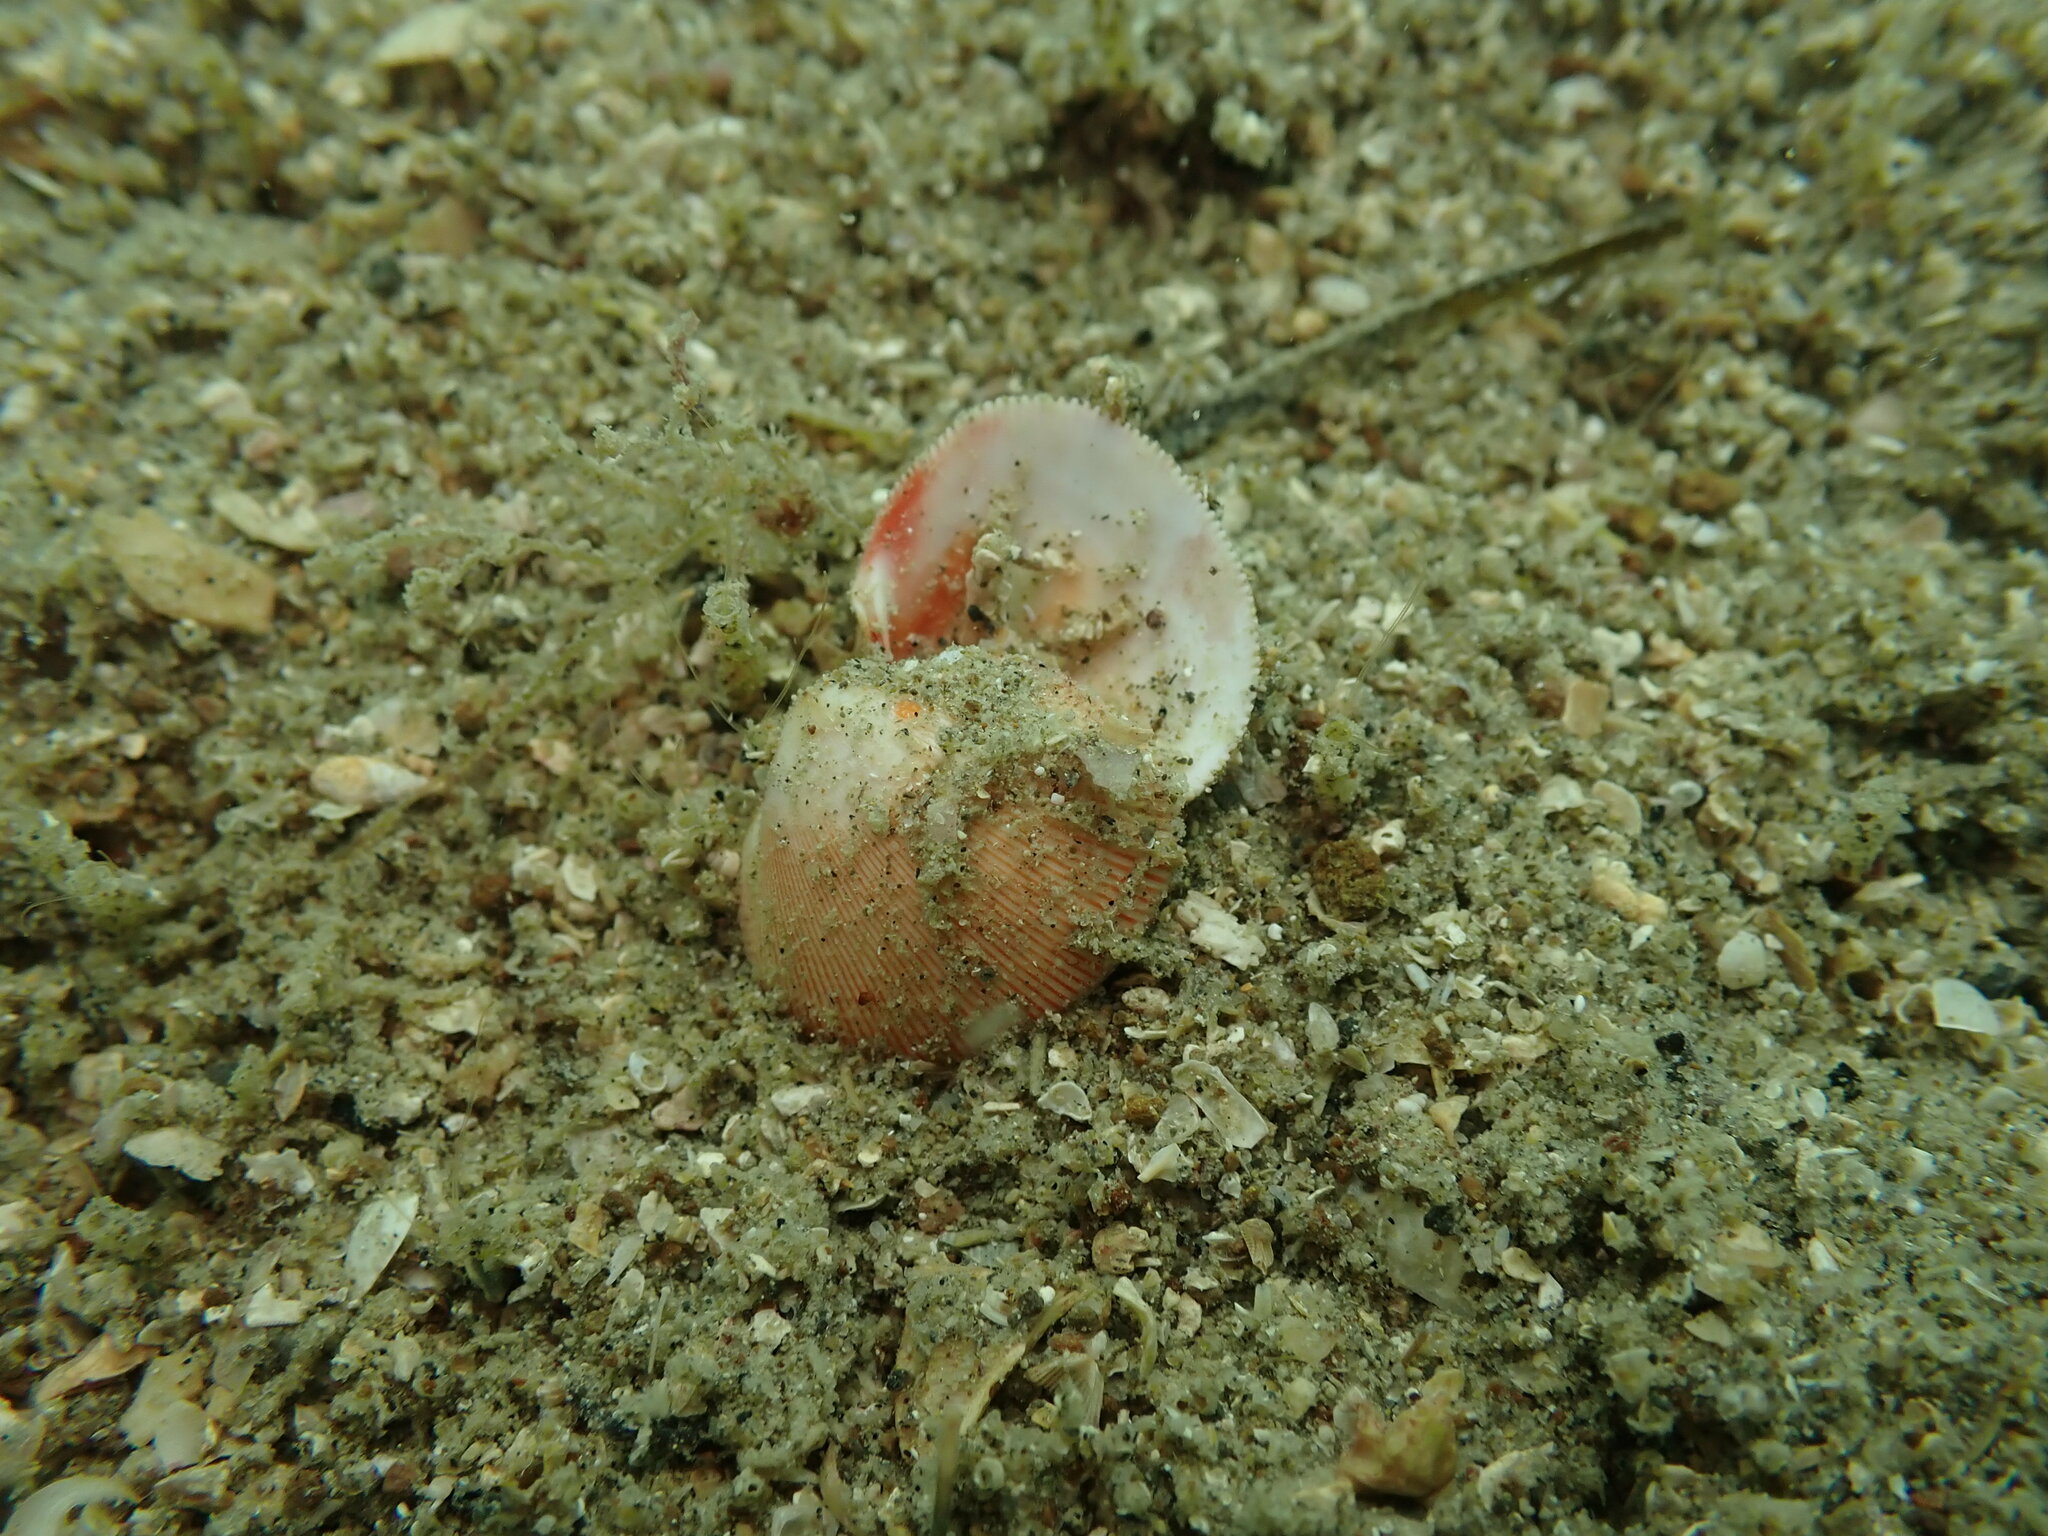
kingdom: Animalia
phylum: Mollusca
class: Bivalvia
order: Cardiida
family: Cardiidae
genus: Pratulum
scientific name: Pratulum pulchellum
